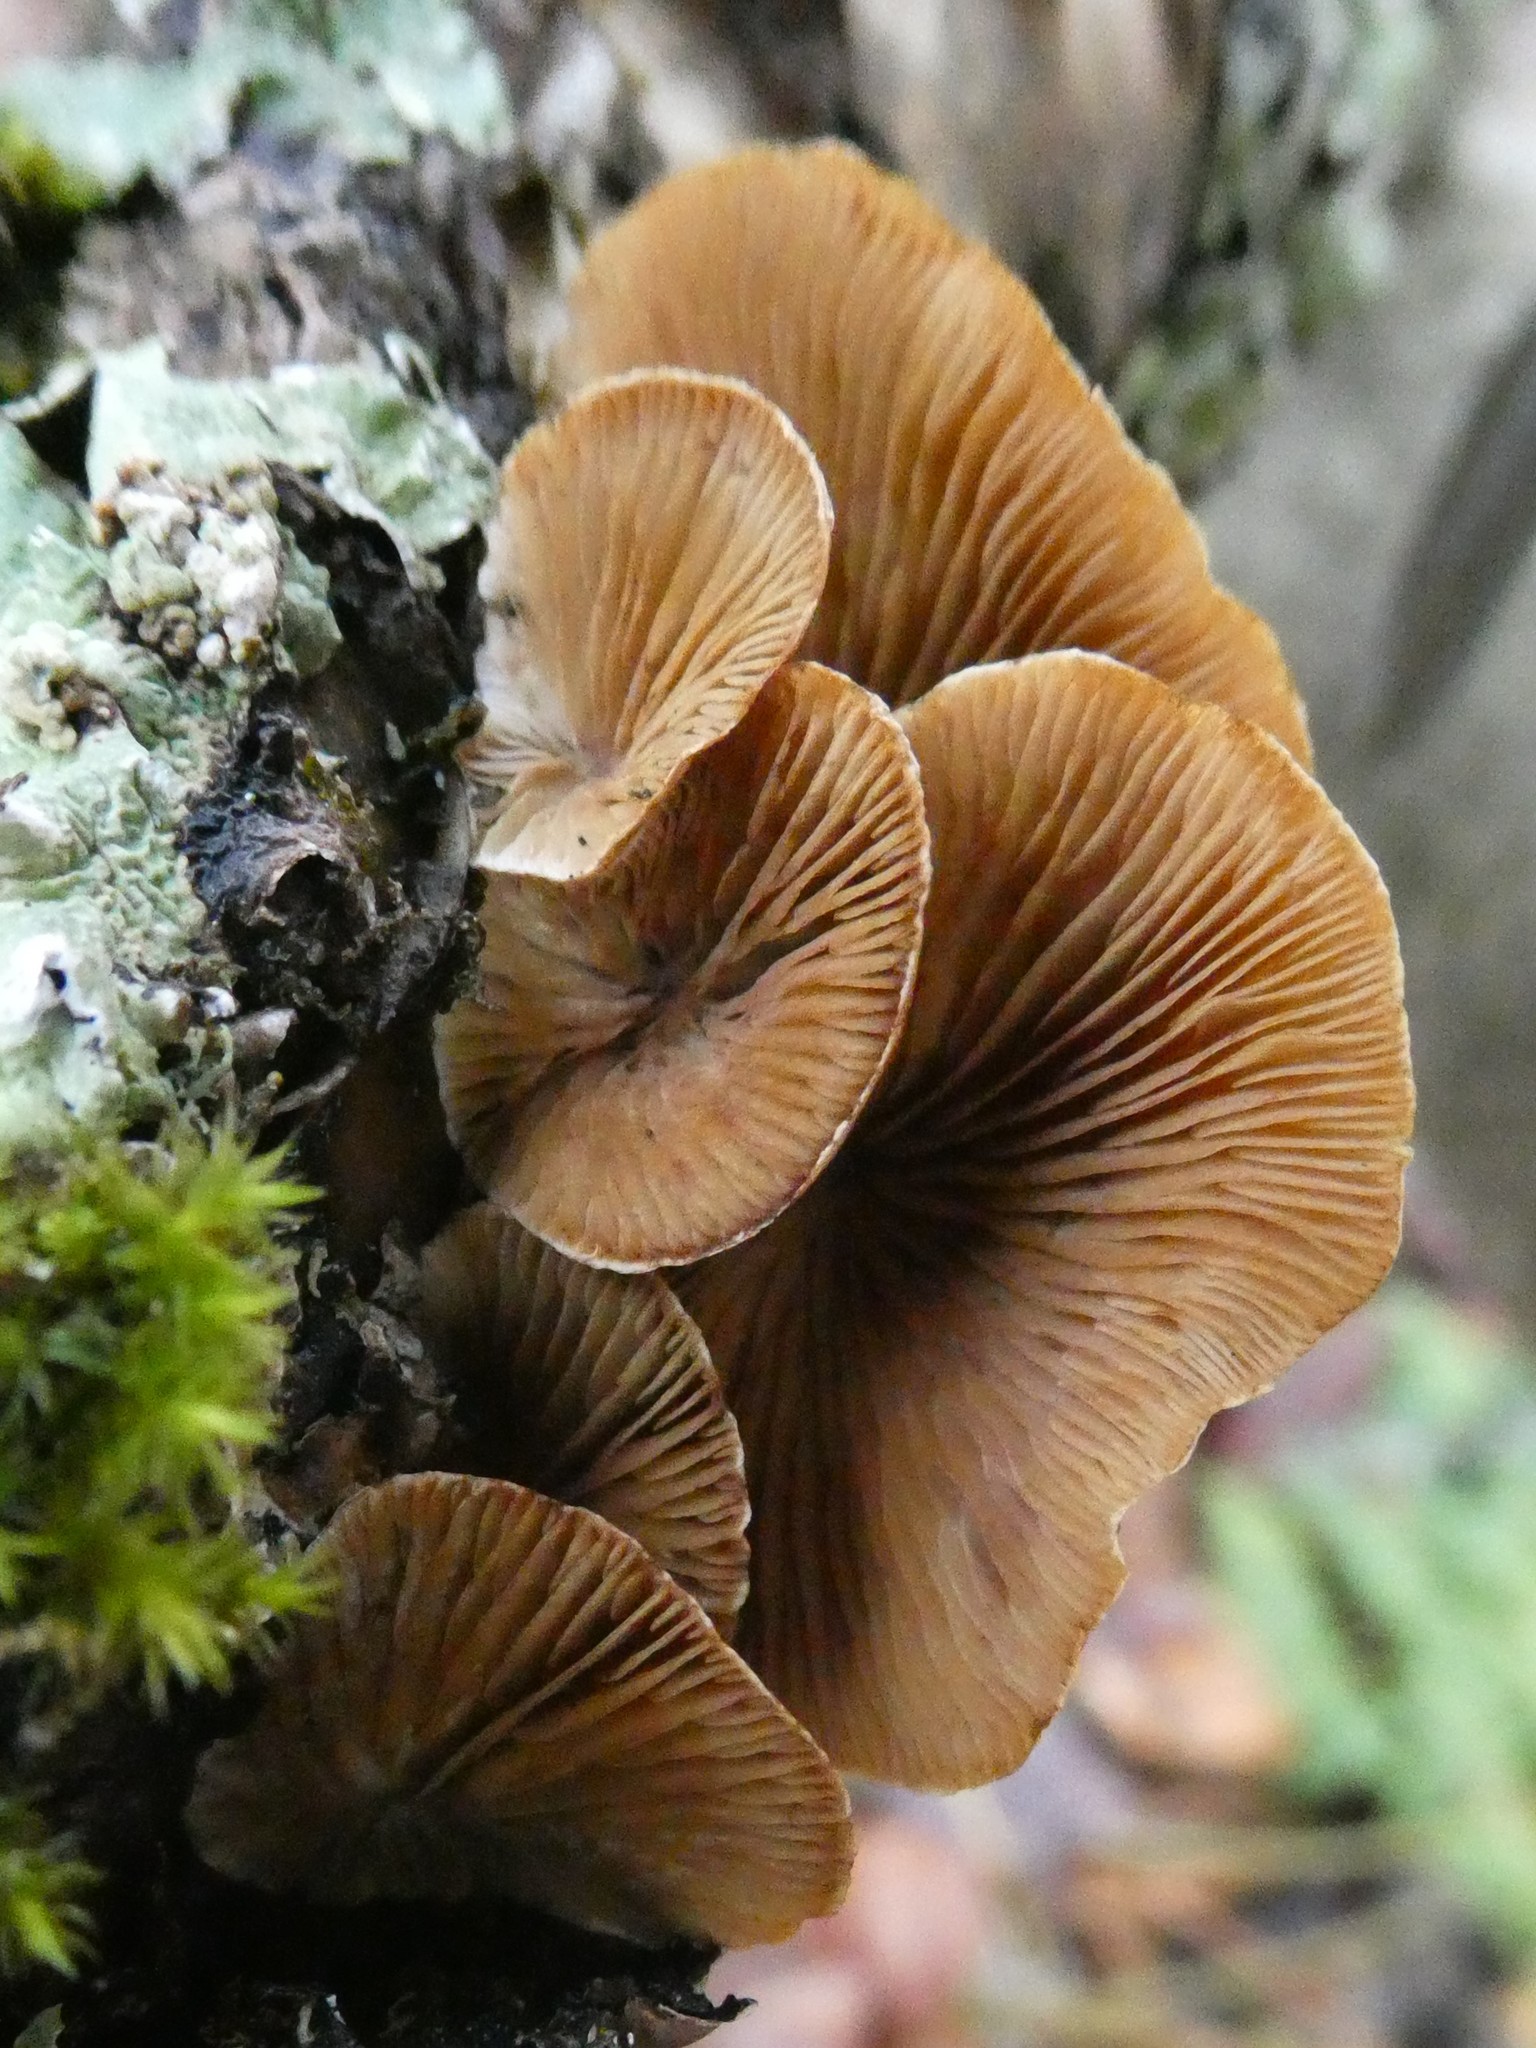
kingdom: Fungi
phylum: Basidiomycota
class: Agaricomycetes
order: Agaricales
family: Mycenaceae
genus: Tectella
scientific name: Tectella patellaris
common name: Veiled panus
